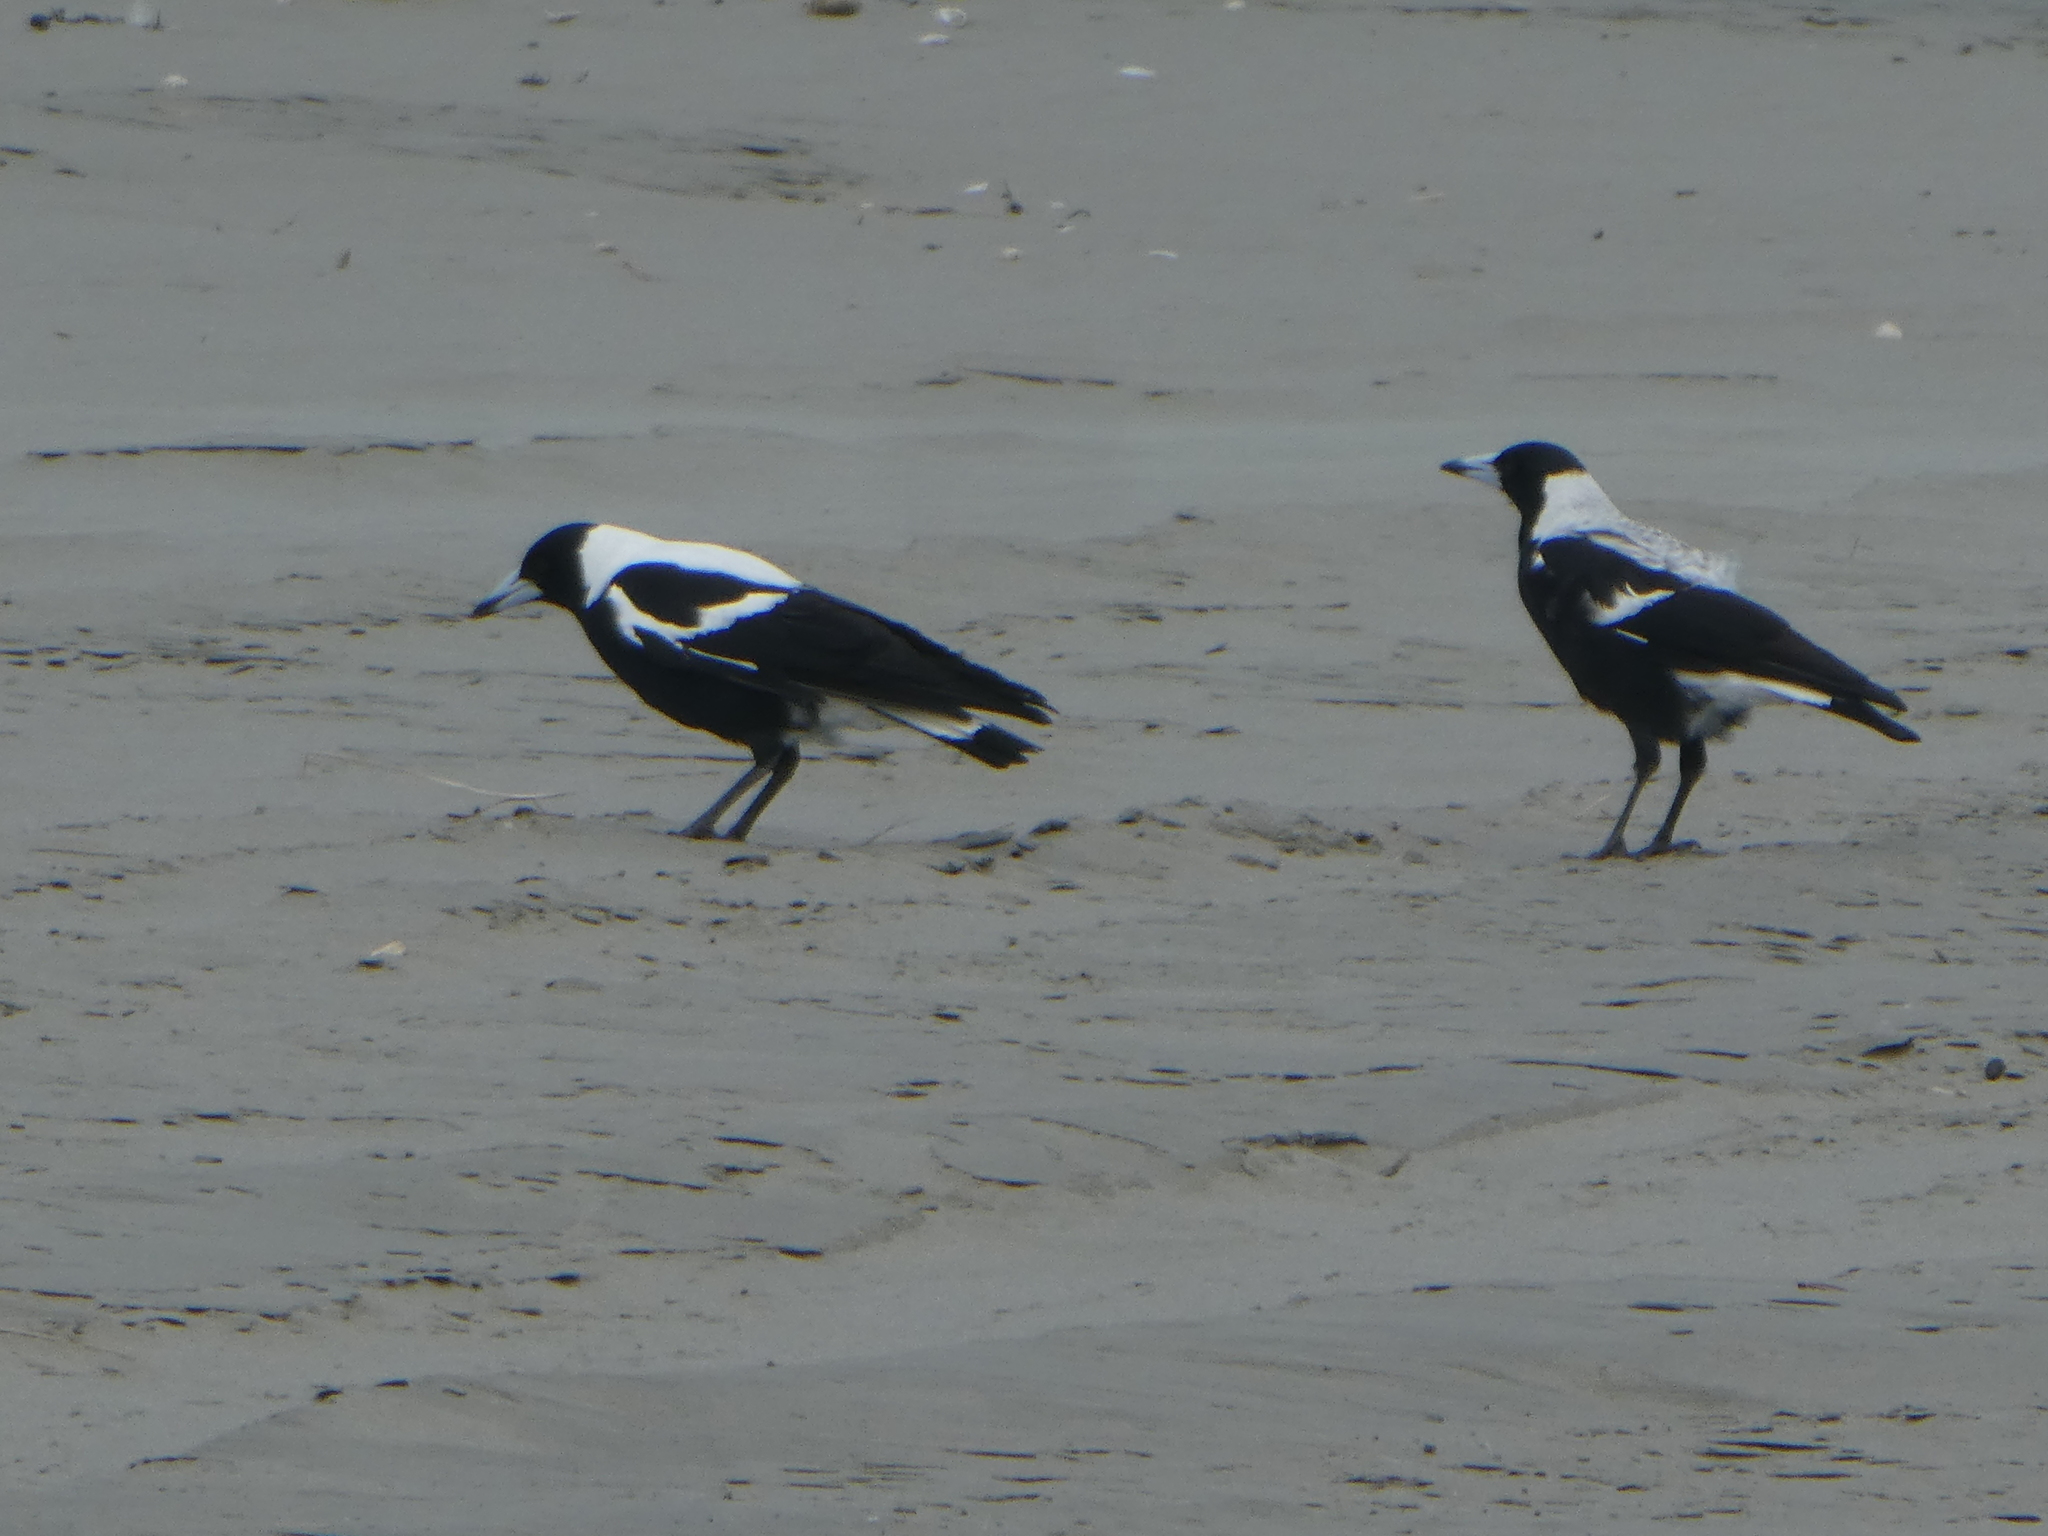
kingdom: Animalia
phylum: Chordata
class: Aves
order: Passeriformes
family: Cracticidae
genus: Gymnorhina
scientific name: Gymnorhina tibicen
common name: Australian magpie
